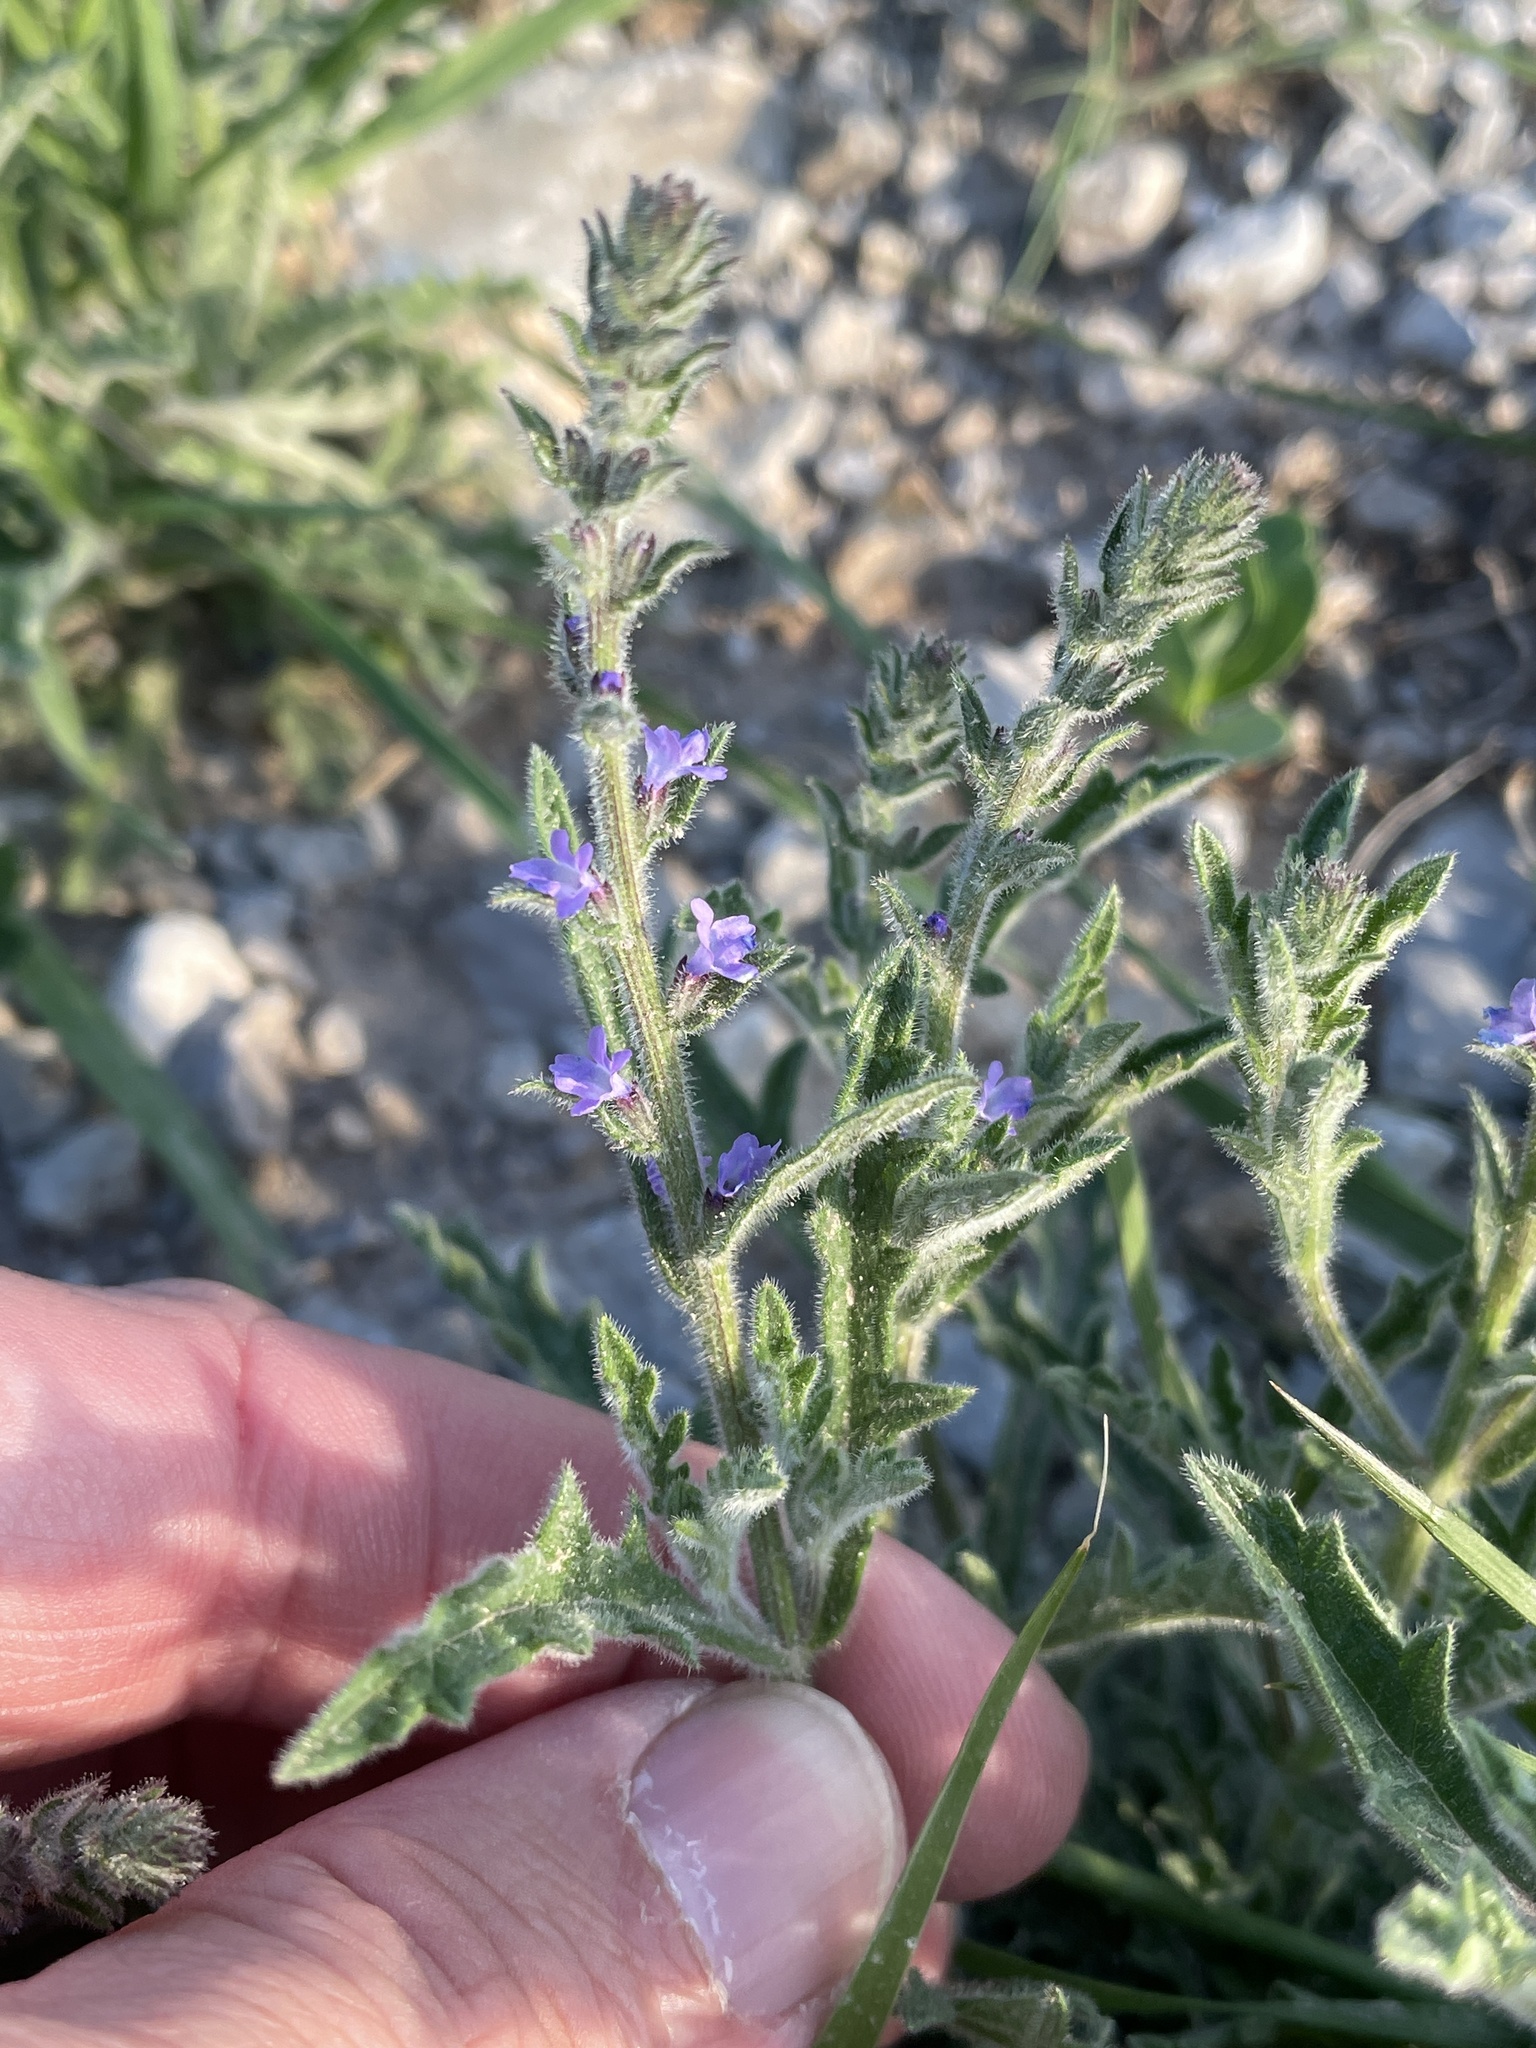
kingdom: Plantae
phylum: Tracheophyta
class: Magnoliopsida
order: Lamiales
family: Verbenaceae
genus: Verbena
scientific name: Verbena canescens
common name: Gray vervain
